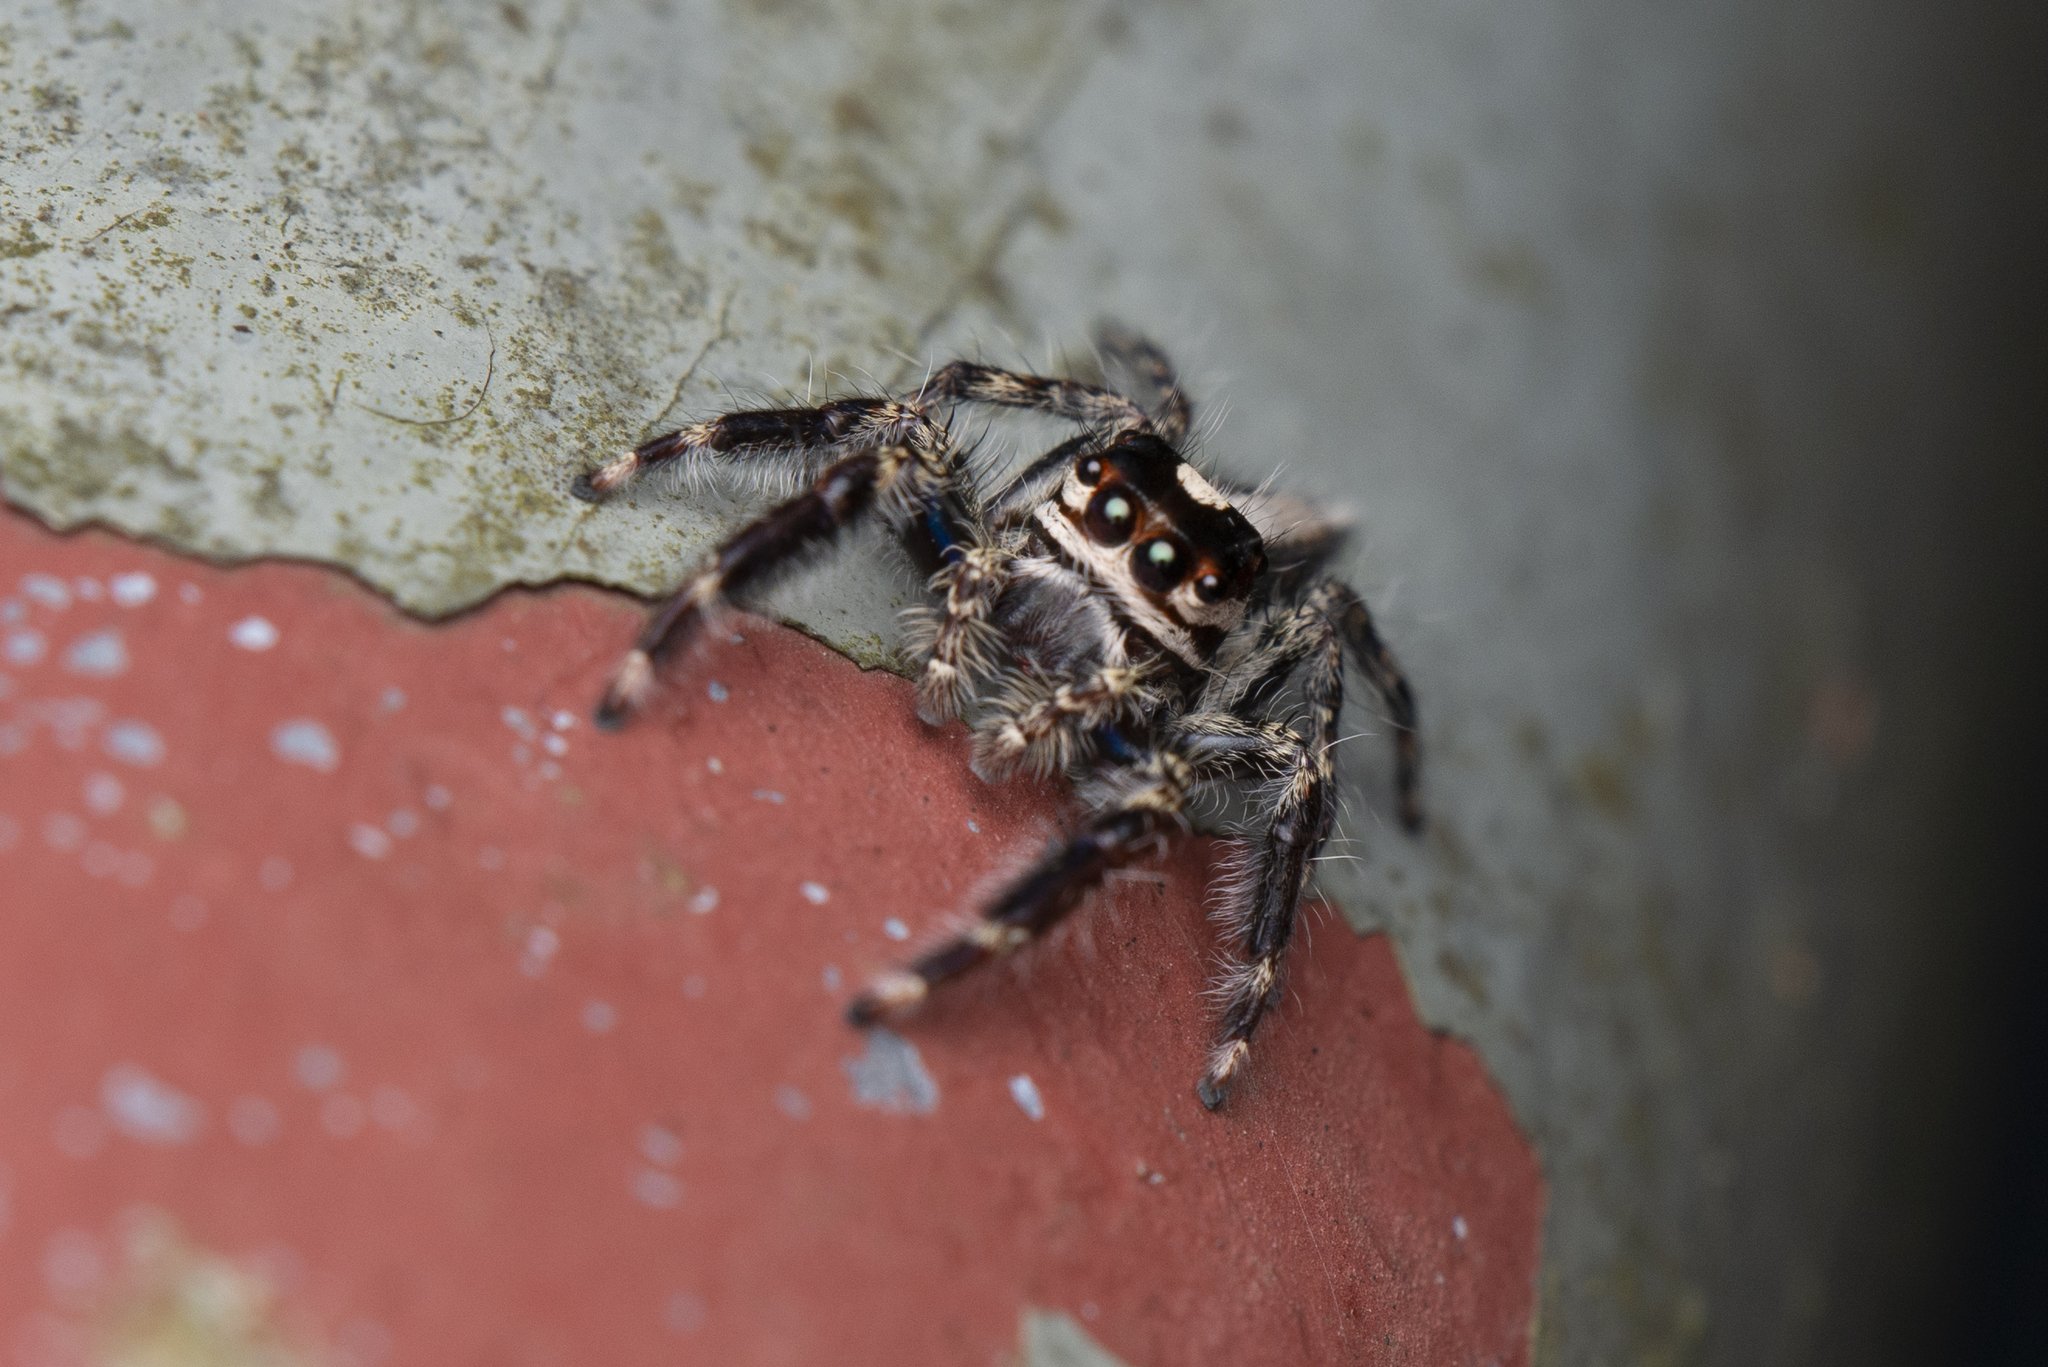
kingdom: Animalia
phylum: Arthropoda
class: Arachnida
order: Araneae
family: Salticidae
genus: Pancorius
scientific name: Pancorius crassipes
